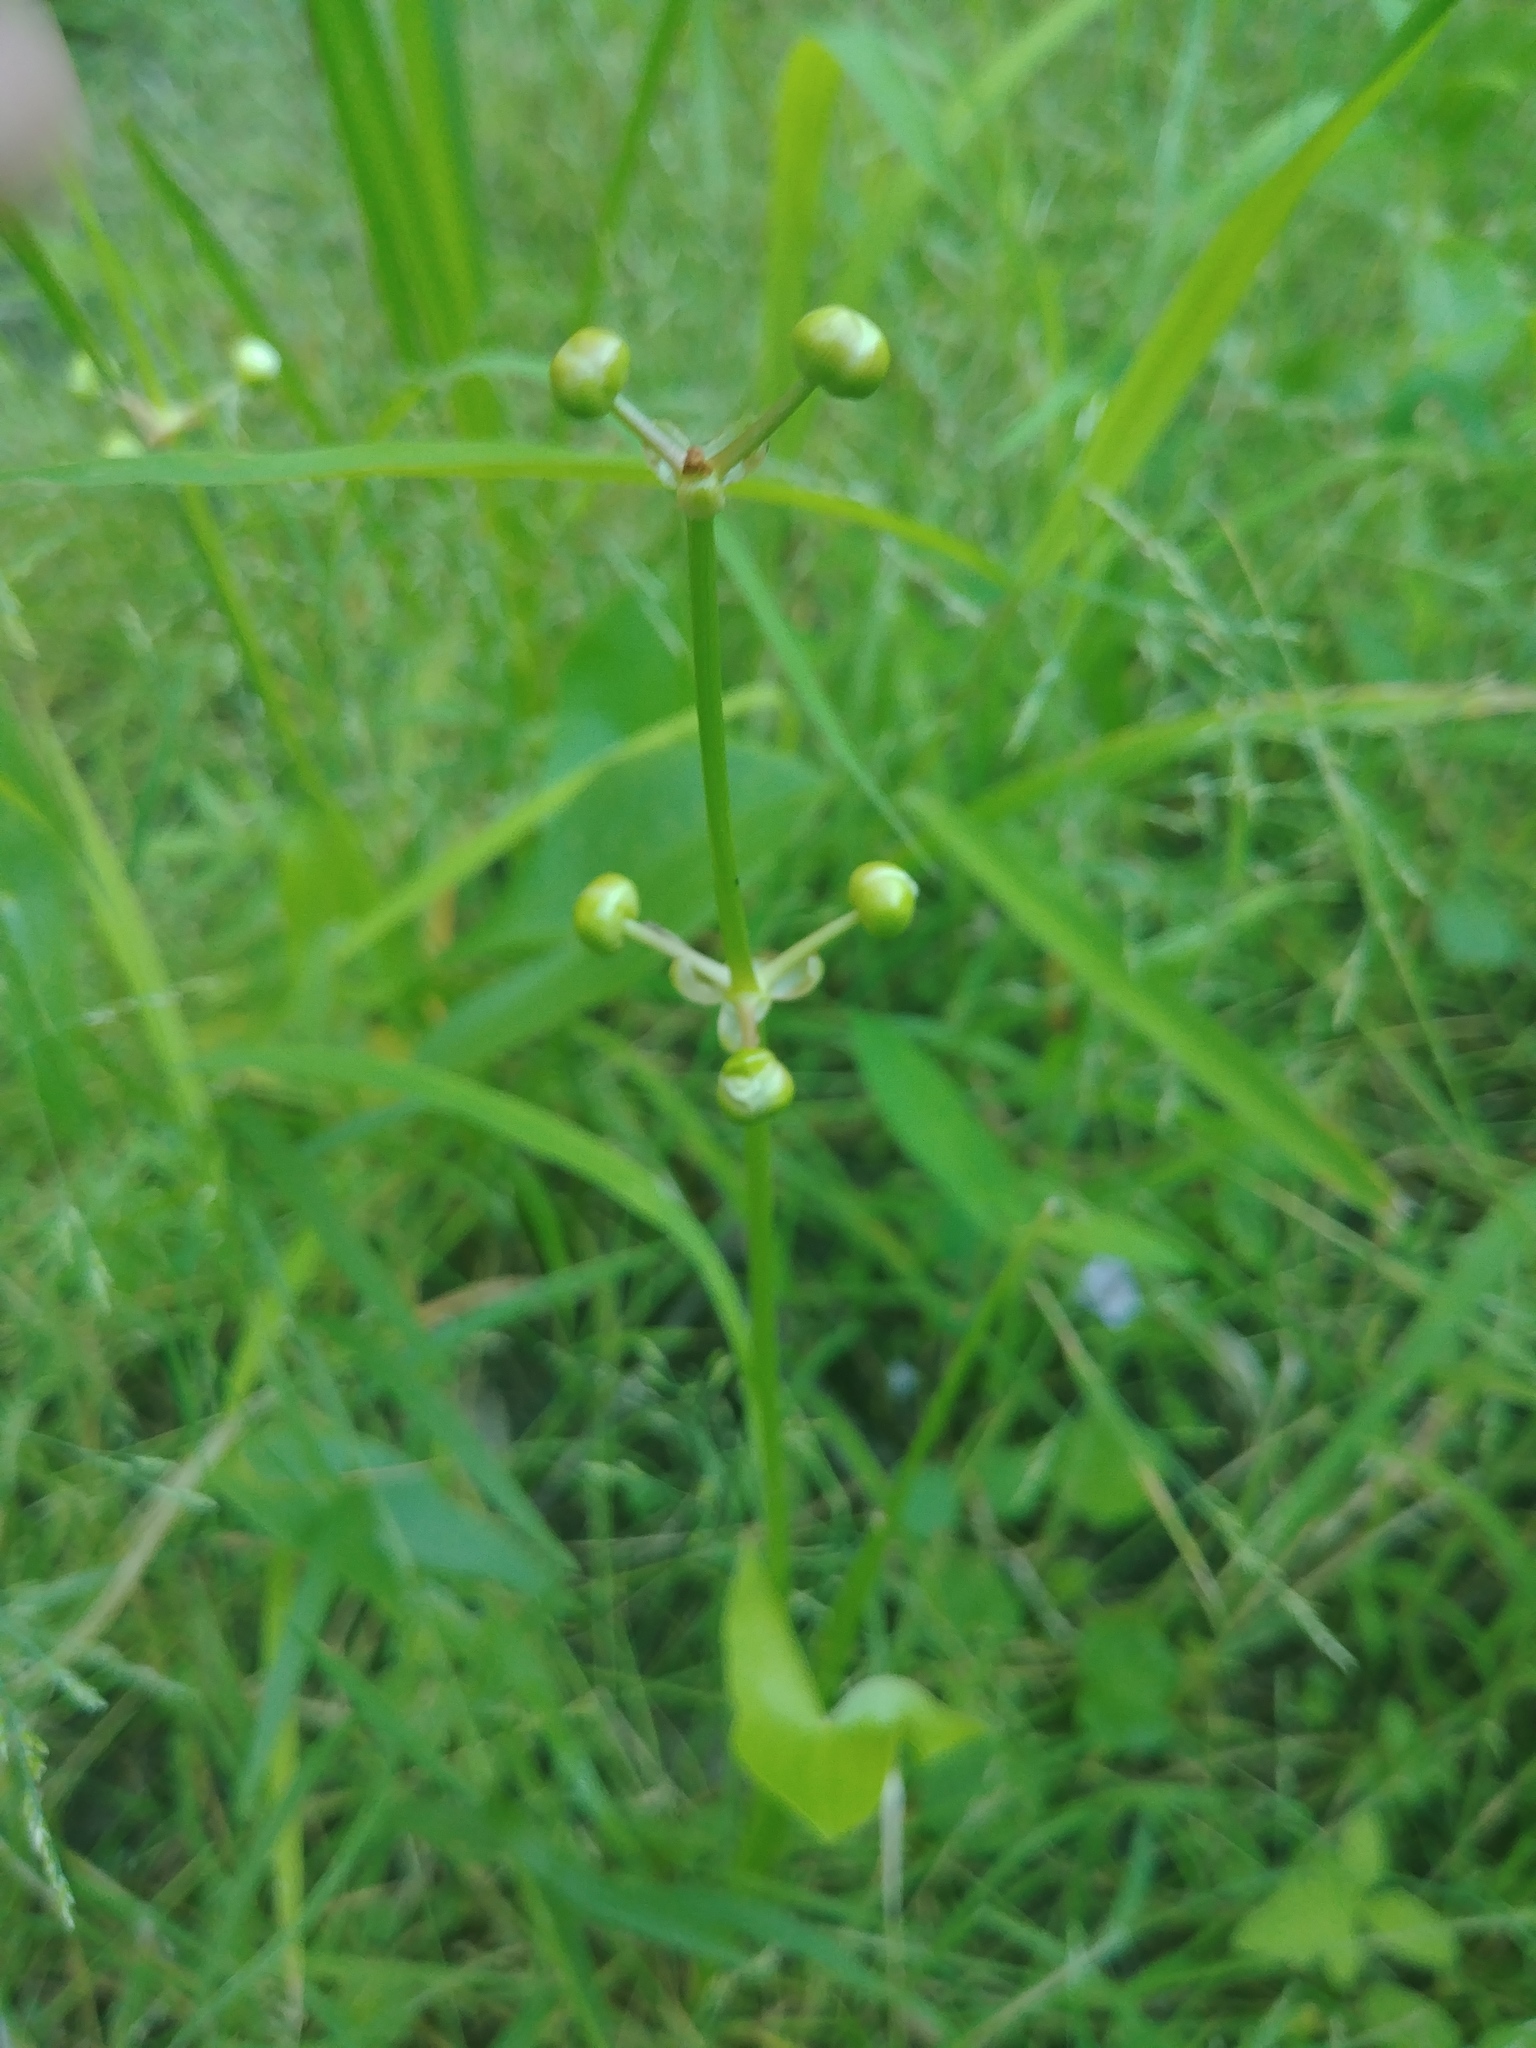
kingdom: Plantae
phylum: Tracheophyta
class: Liliopsida
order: Alismatales
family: Alismataceae
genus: Sagittaria
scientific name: Sagittaria latifolia
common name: Duck-potato
